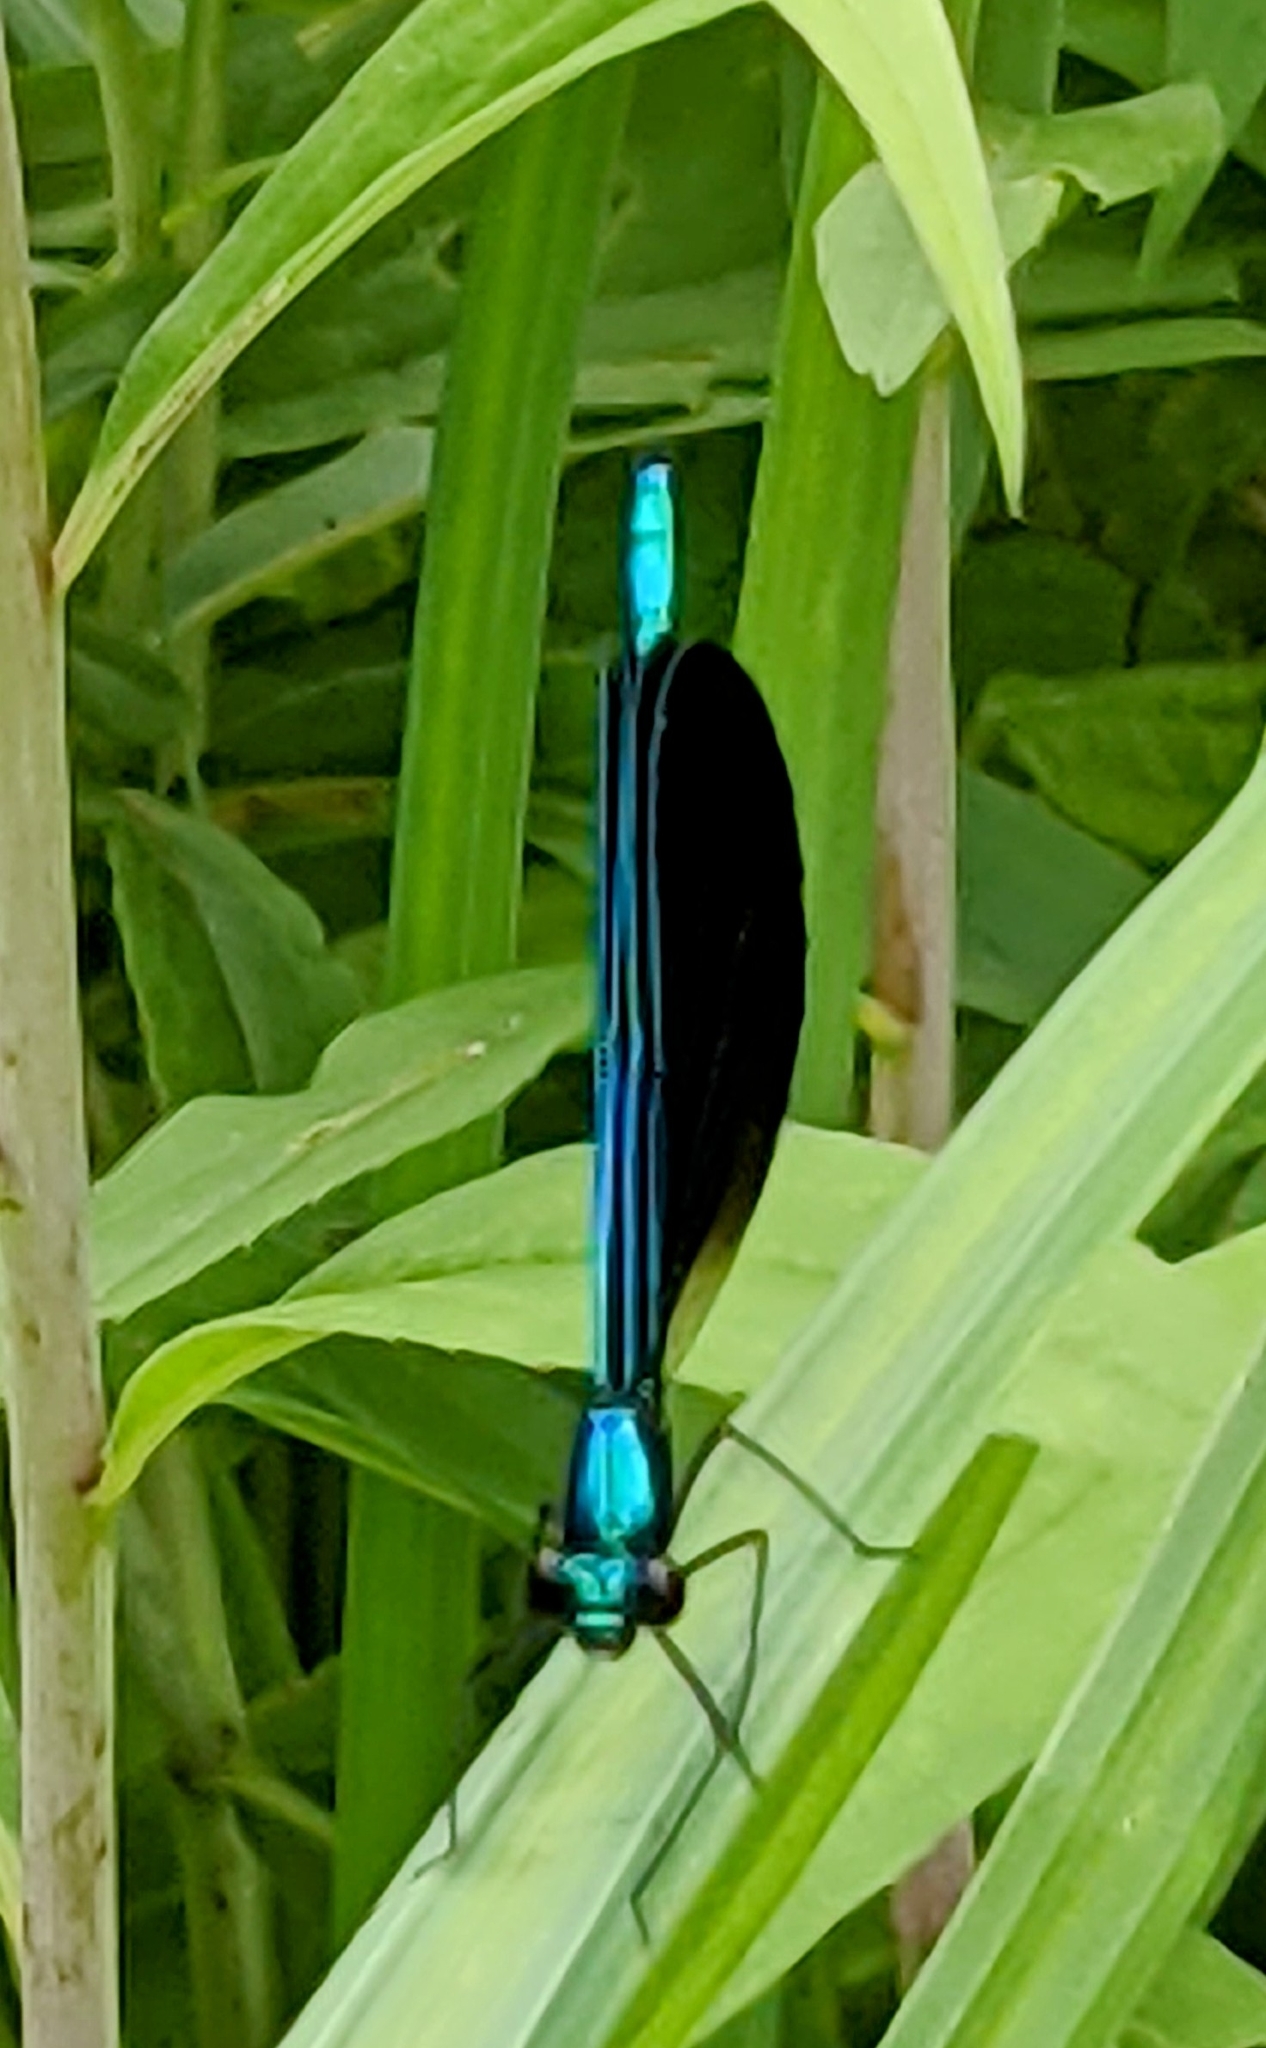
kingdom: Animalia
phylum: Arthropoda
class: Insecta
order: Odonata
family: Calopterygidae
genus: Calopteryx
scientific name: Calopteryx maculata
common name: Ebony jewelwing
